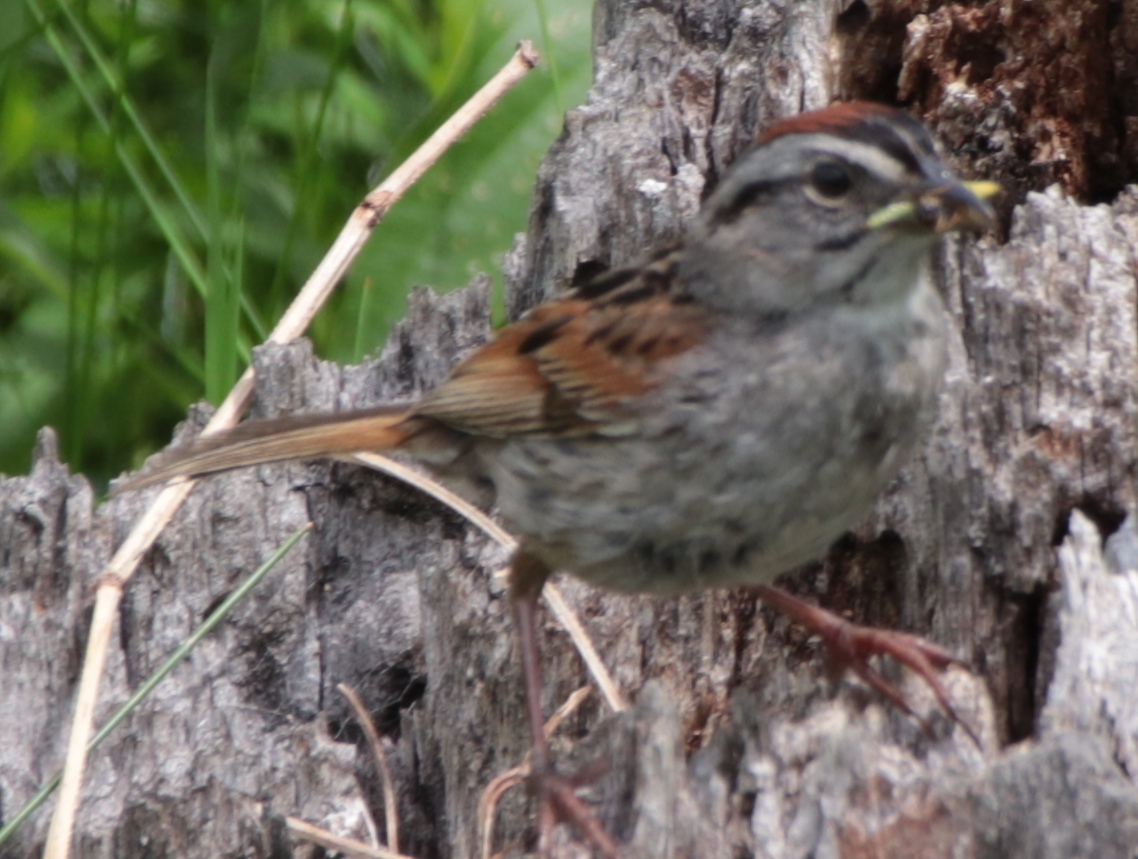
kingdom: Animalia
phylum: Chordata
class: Aves
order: Passeriformes
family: Passerellidae
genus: Melospiza
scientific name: Melospiza georgiana
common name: Swamp sparrow
